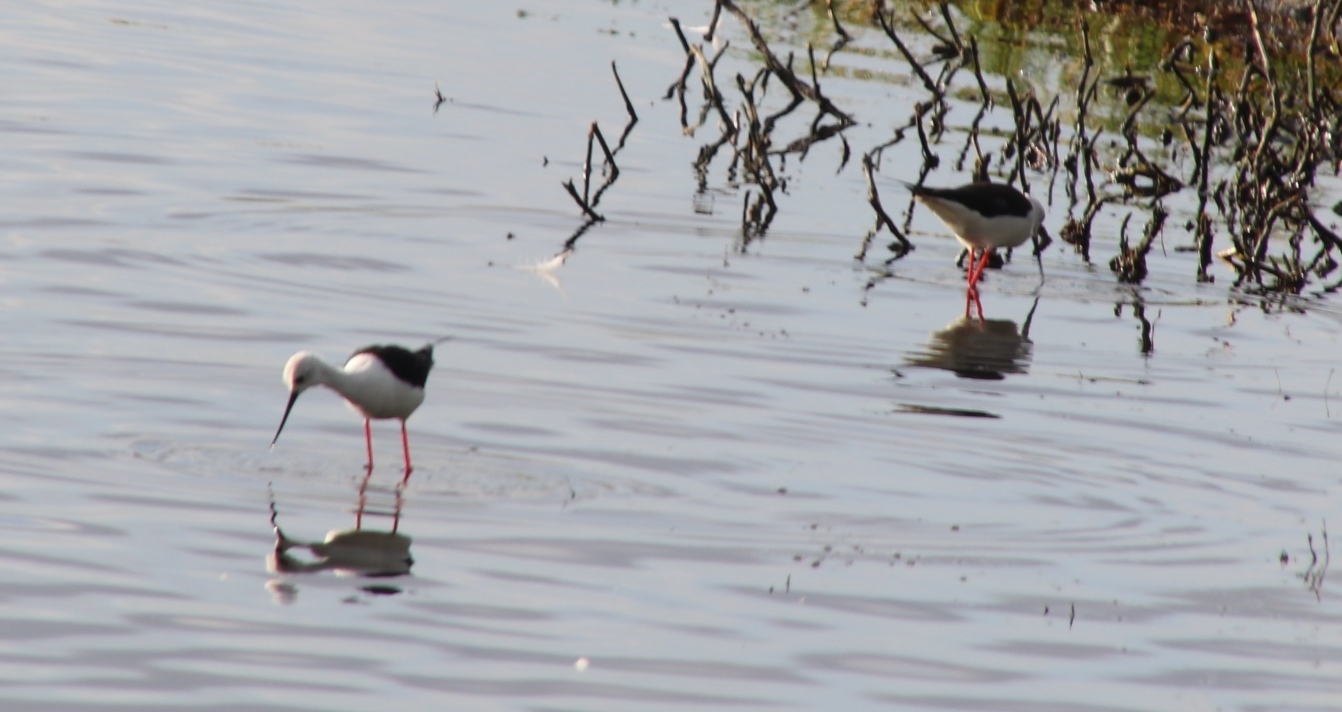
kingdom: Animalia
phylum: Chordata
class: Aves
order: Charadriiformes
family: Recurvirostridae
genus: Himantopus
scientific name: Himantopus himantopus
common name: Black-winged stilt
